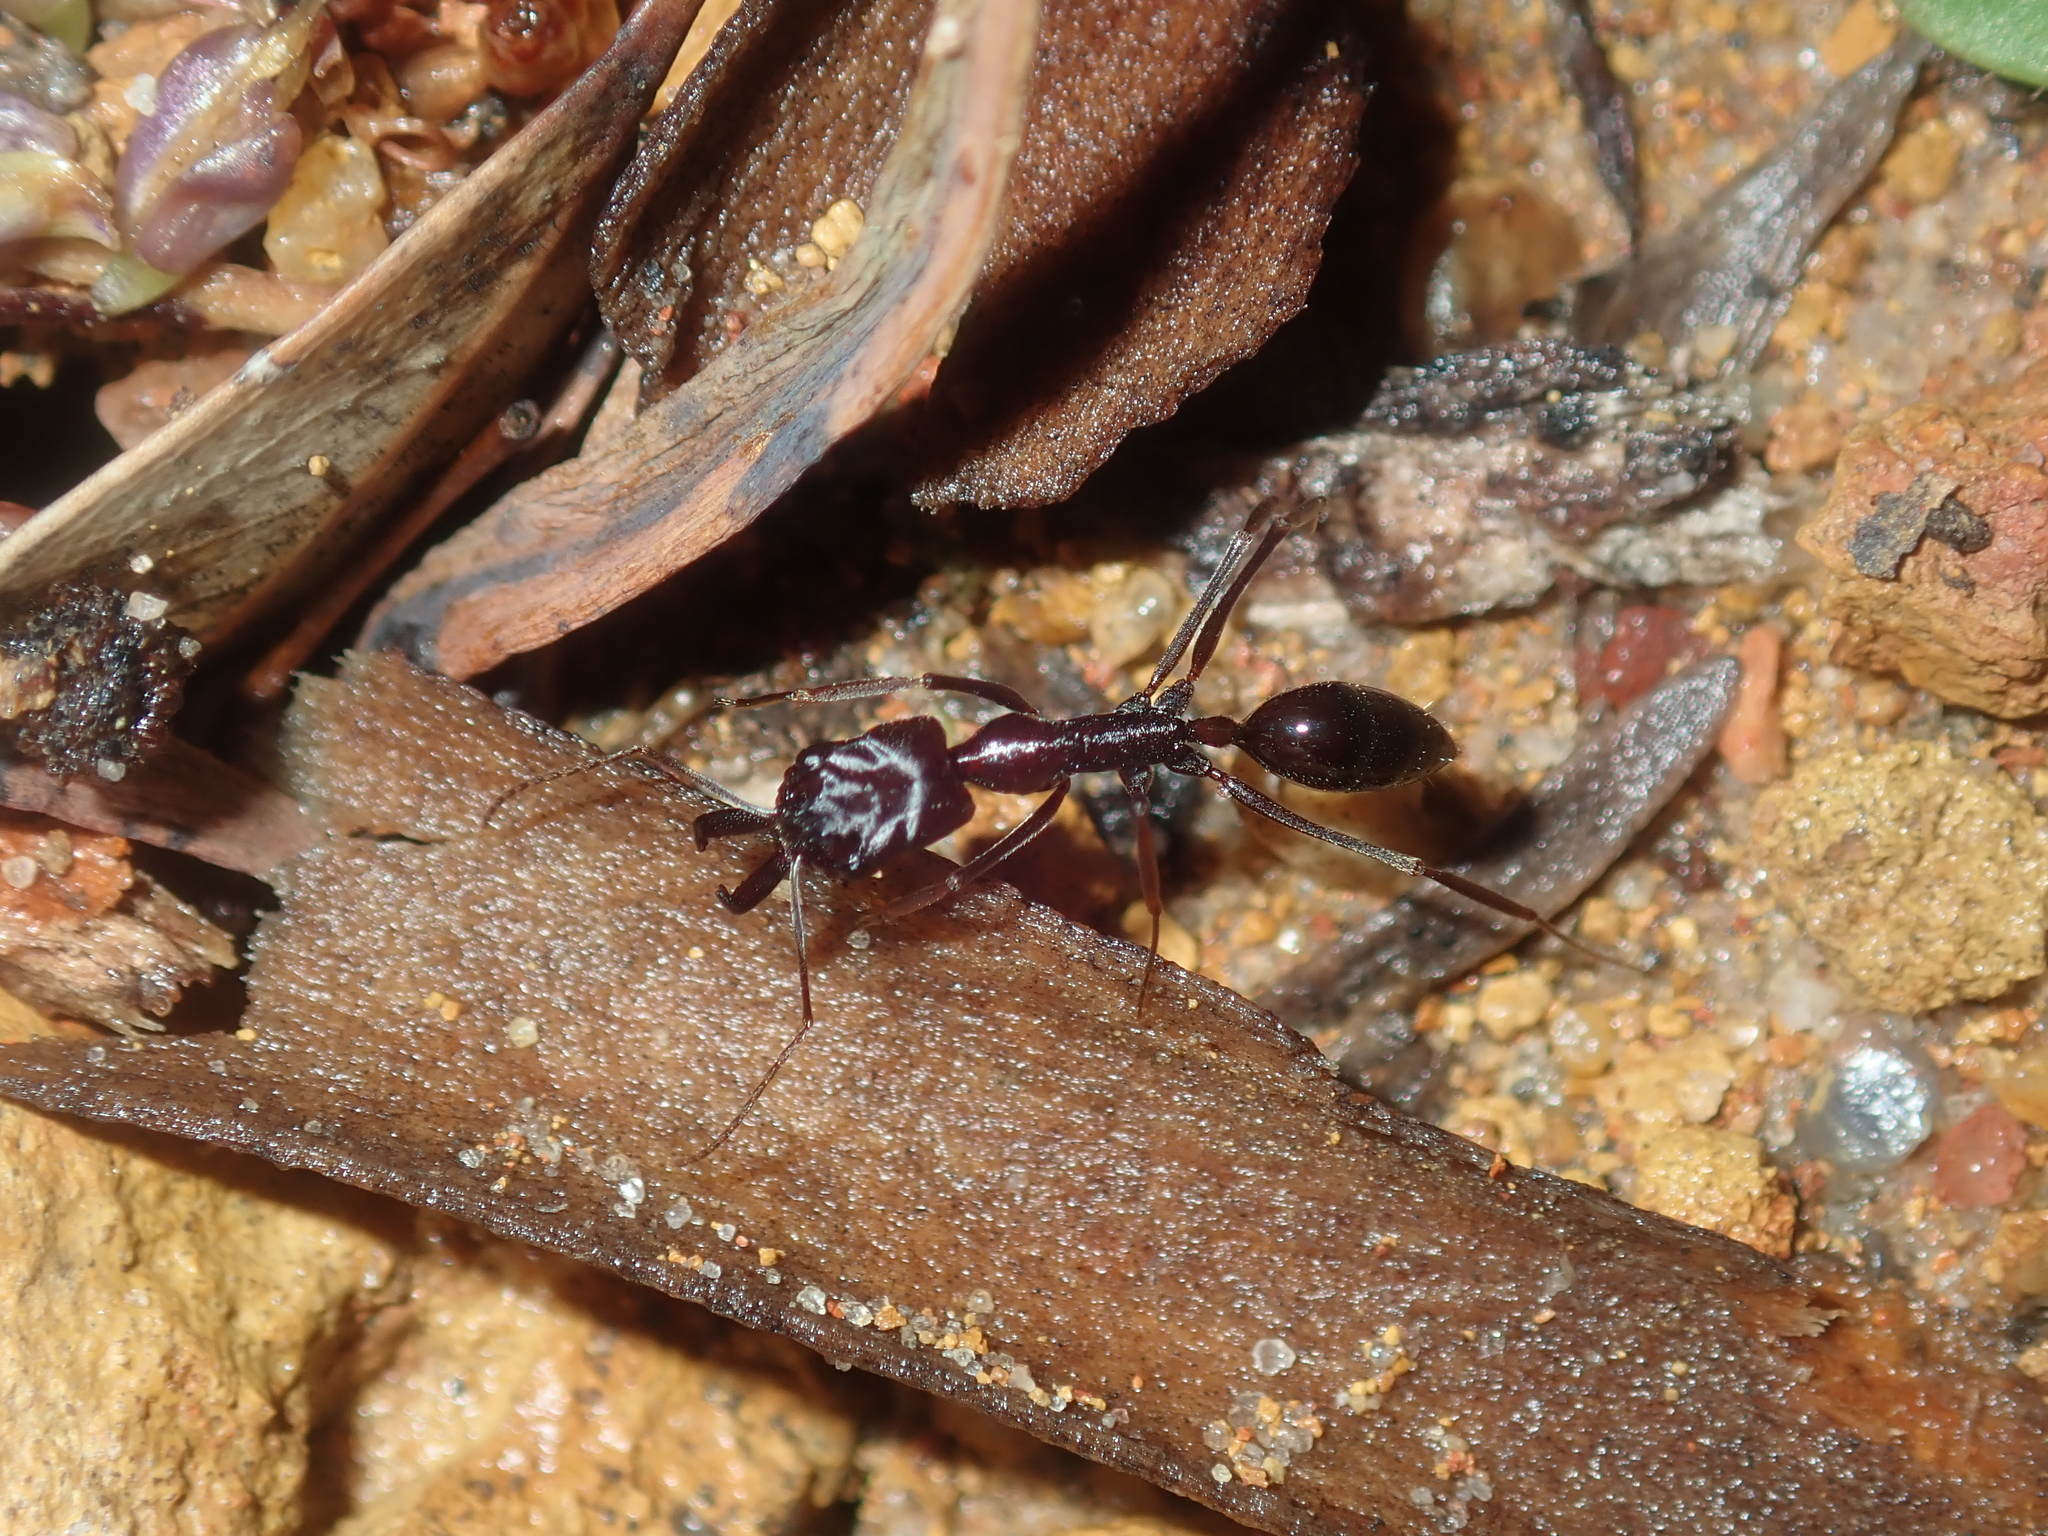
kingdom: Animalia
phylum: Arthropoda
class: Insecta
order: Hymenoptera
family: Formicidae
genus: Odontomachus
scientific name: Odontomachus ruficeps
